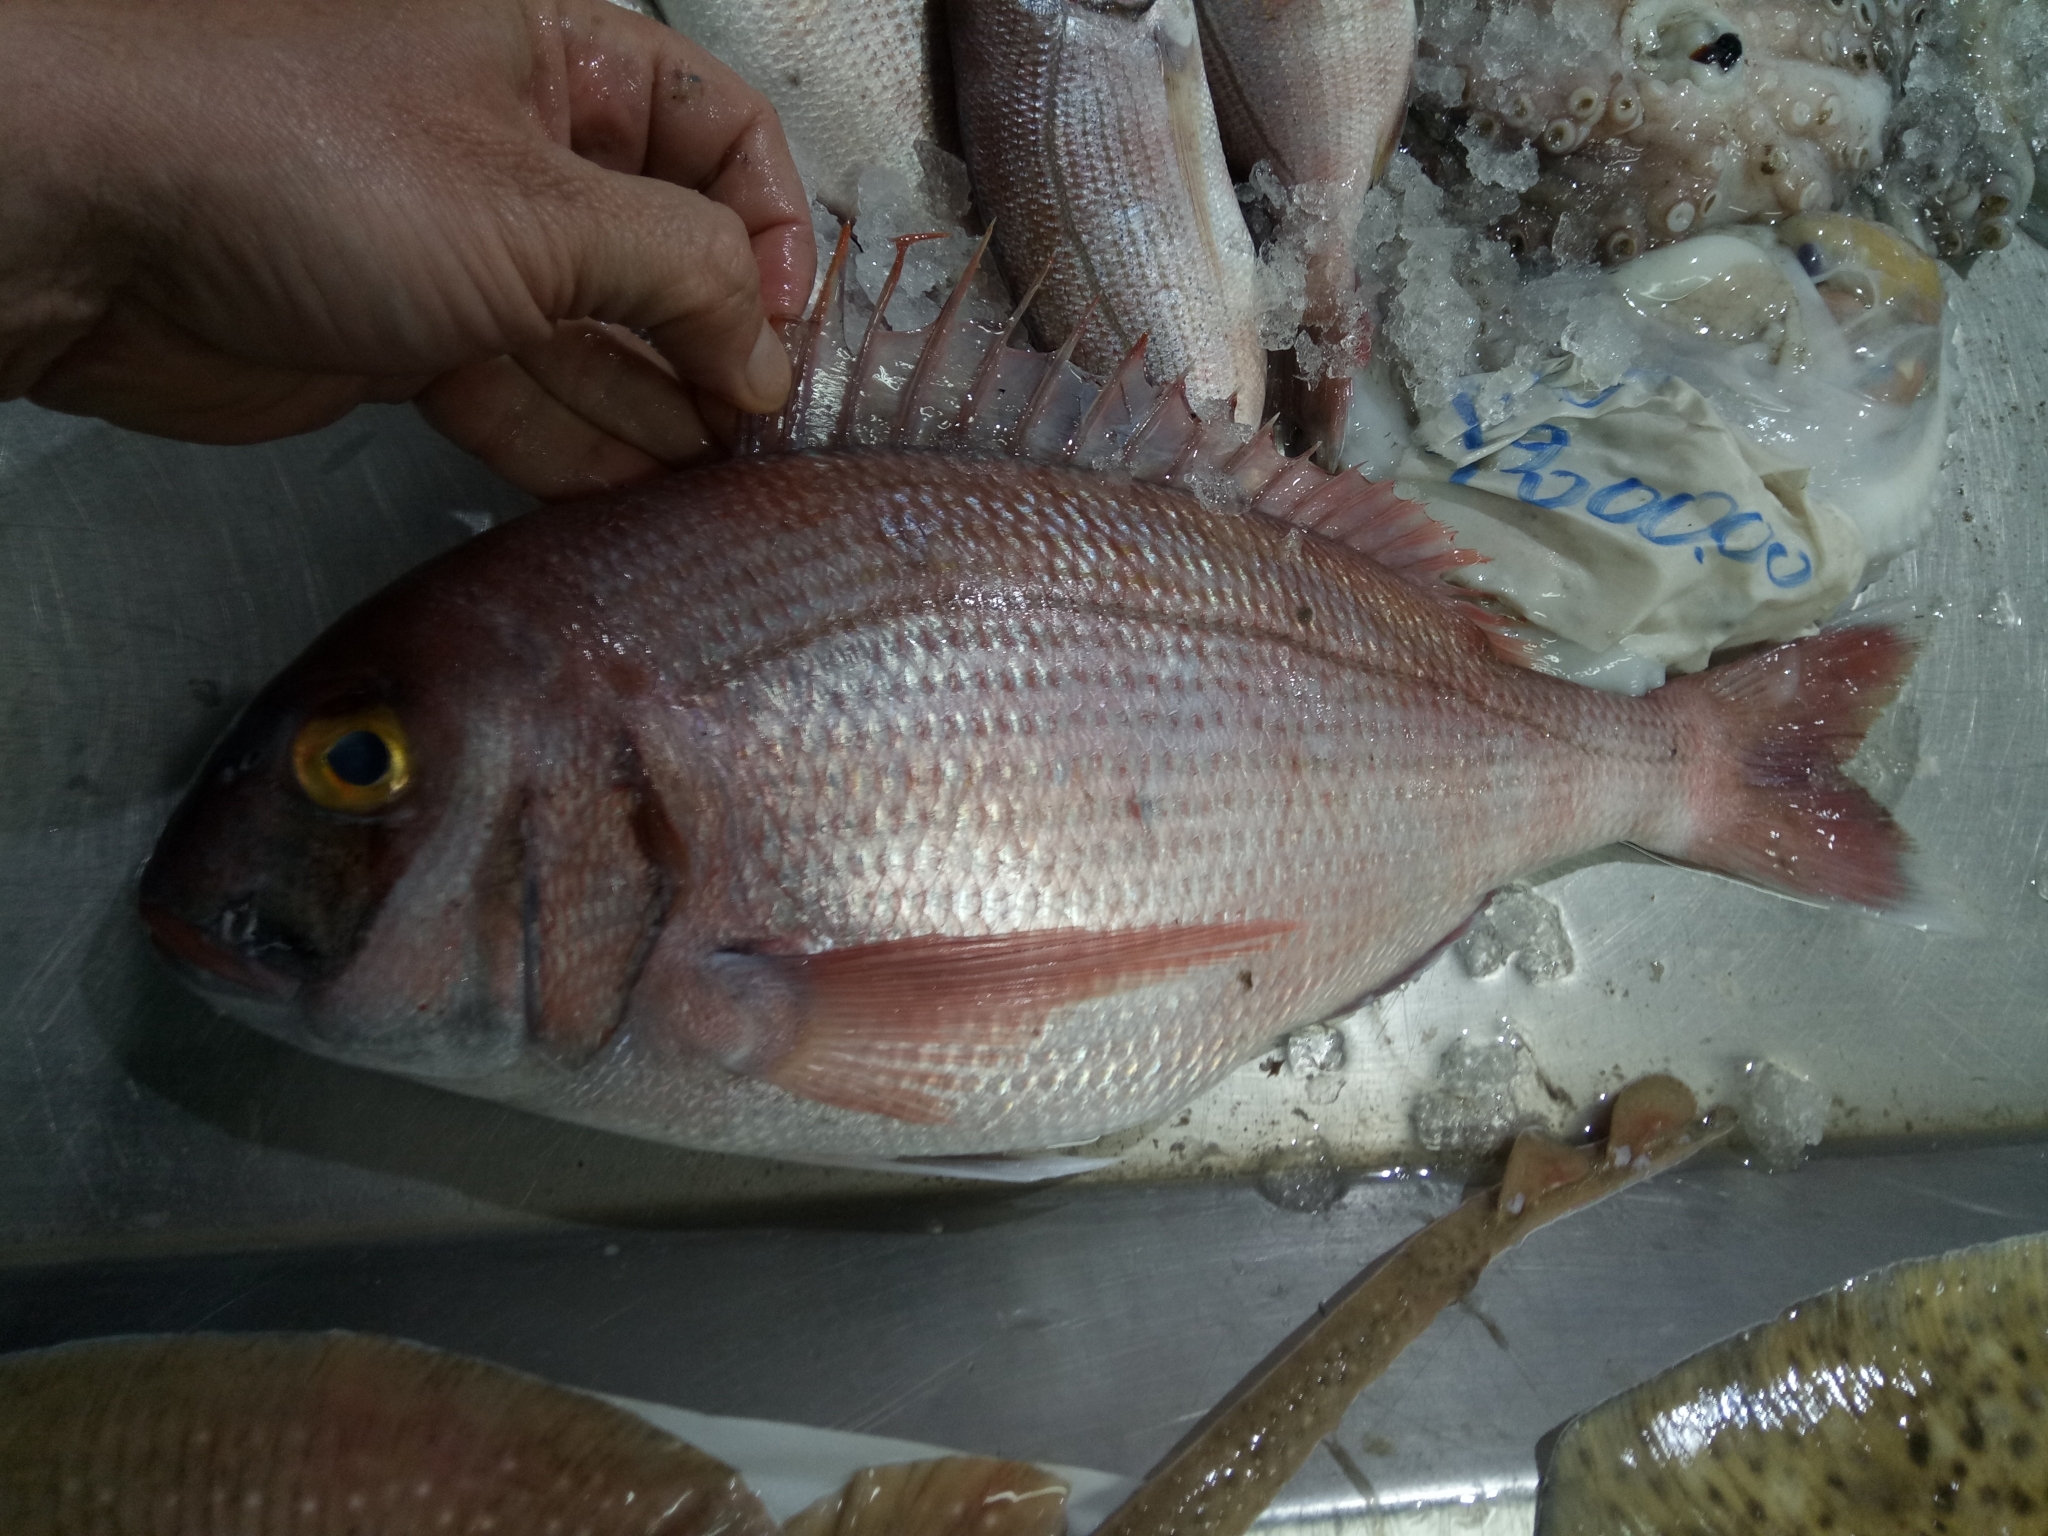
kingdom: Animalia
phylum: Chordata
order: Perciformes
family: Sparidae
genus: Pagrus
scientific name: Pagrus pagrus
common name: Red porgy
